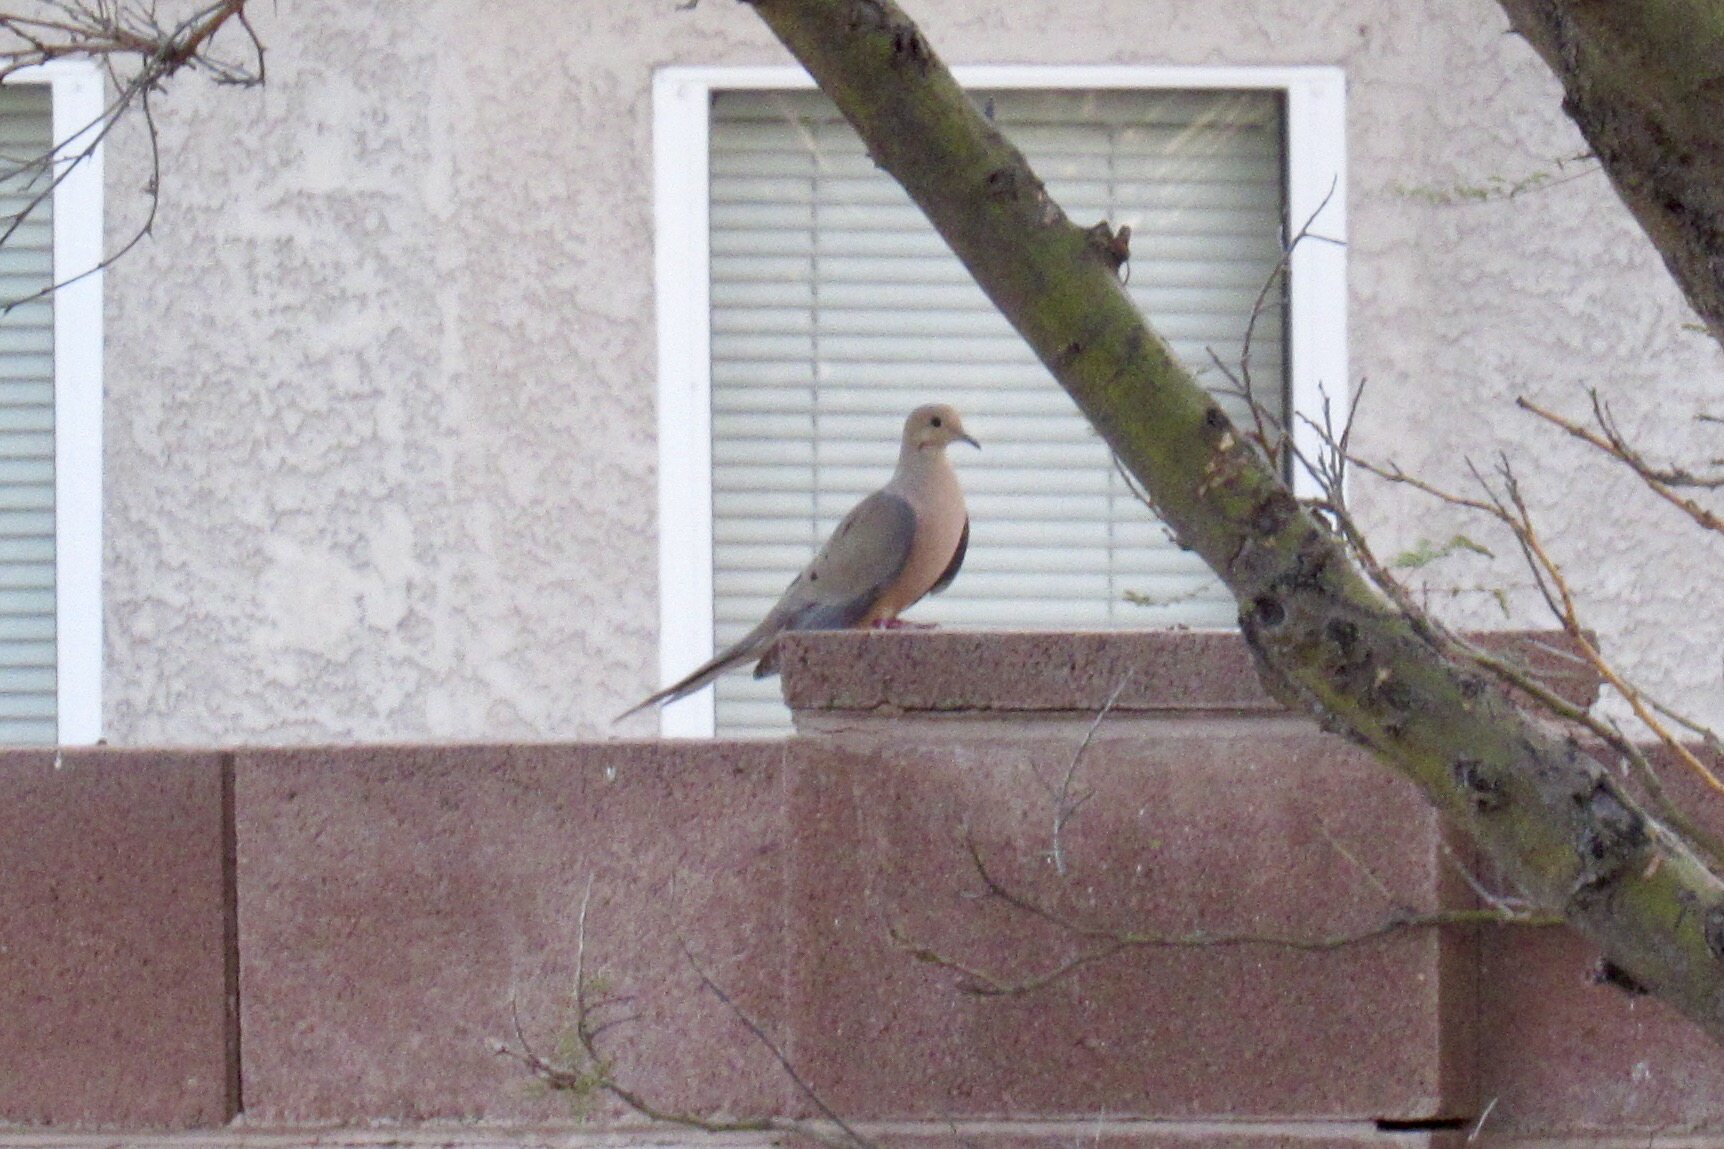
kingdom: Animalia
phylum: Chordata
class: Aves
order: Columbiformes
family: Columbidae
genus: Zenaida
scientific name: Zenaida macroura
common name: Mourning dove
